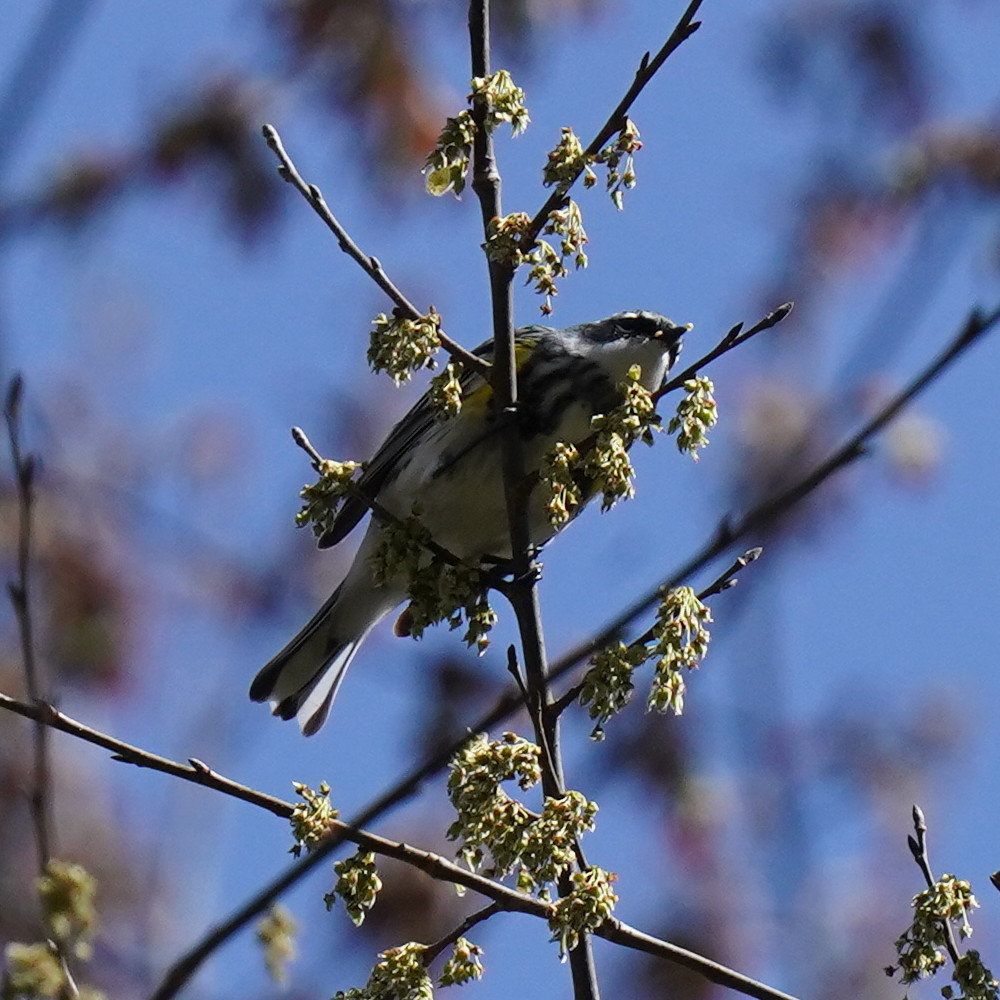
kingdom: Animalia
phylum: Chordata
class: Aves
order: Passeriformes
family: Parulidae
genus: Setophaga
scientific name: Setophaga coronata
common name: Myrtle warbler
